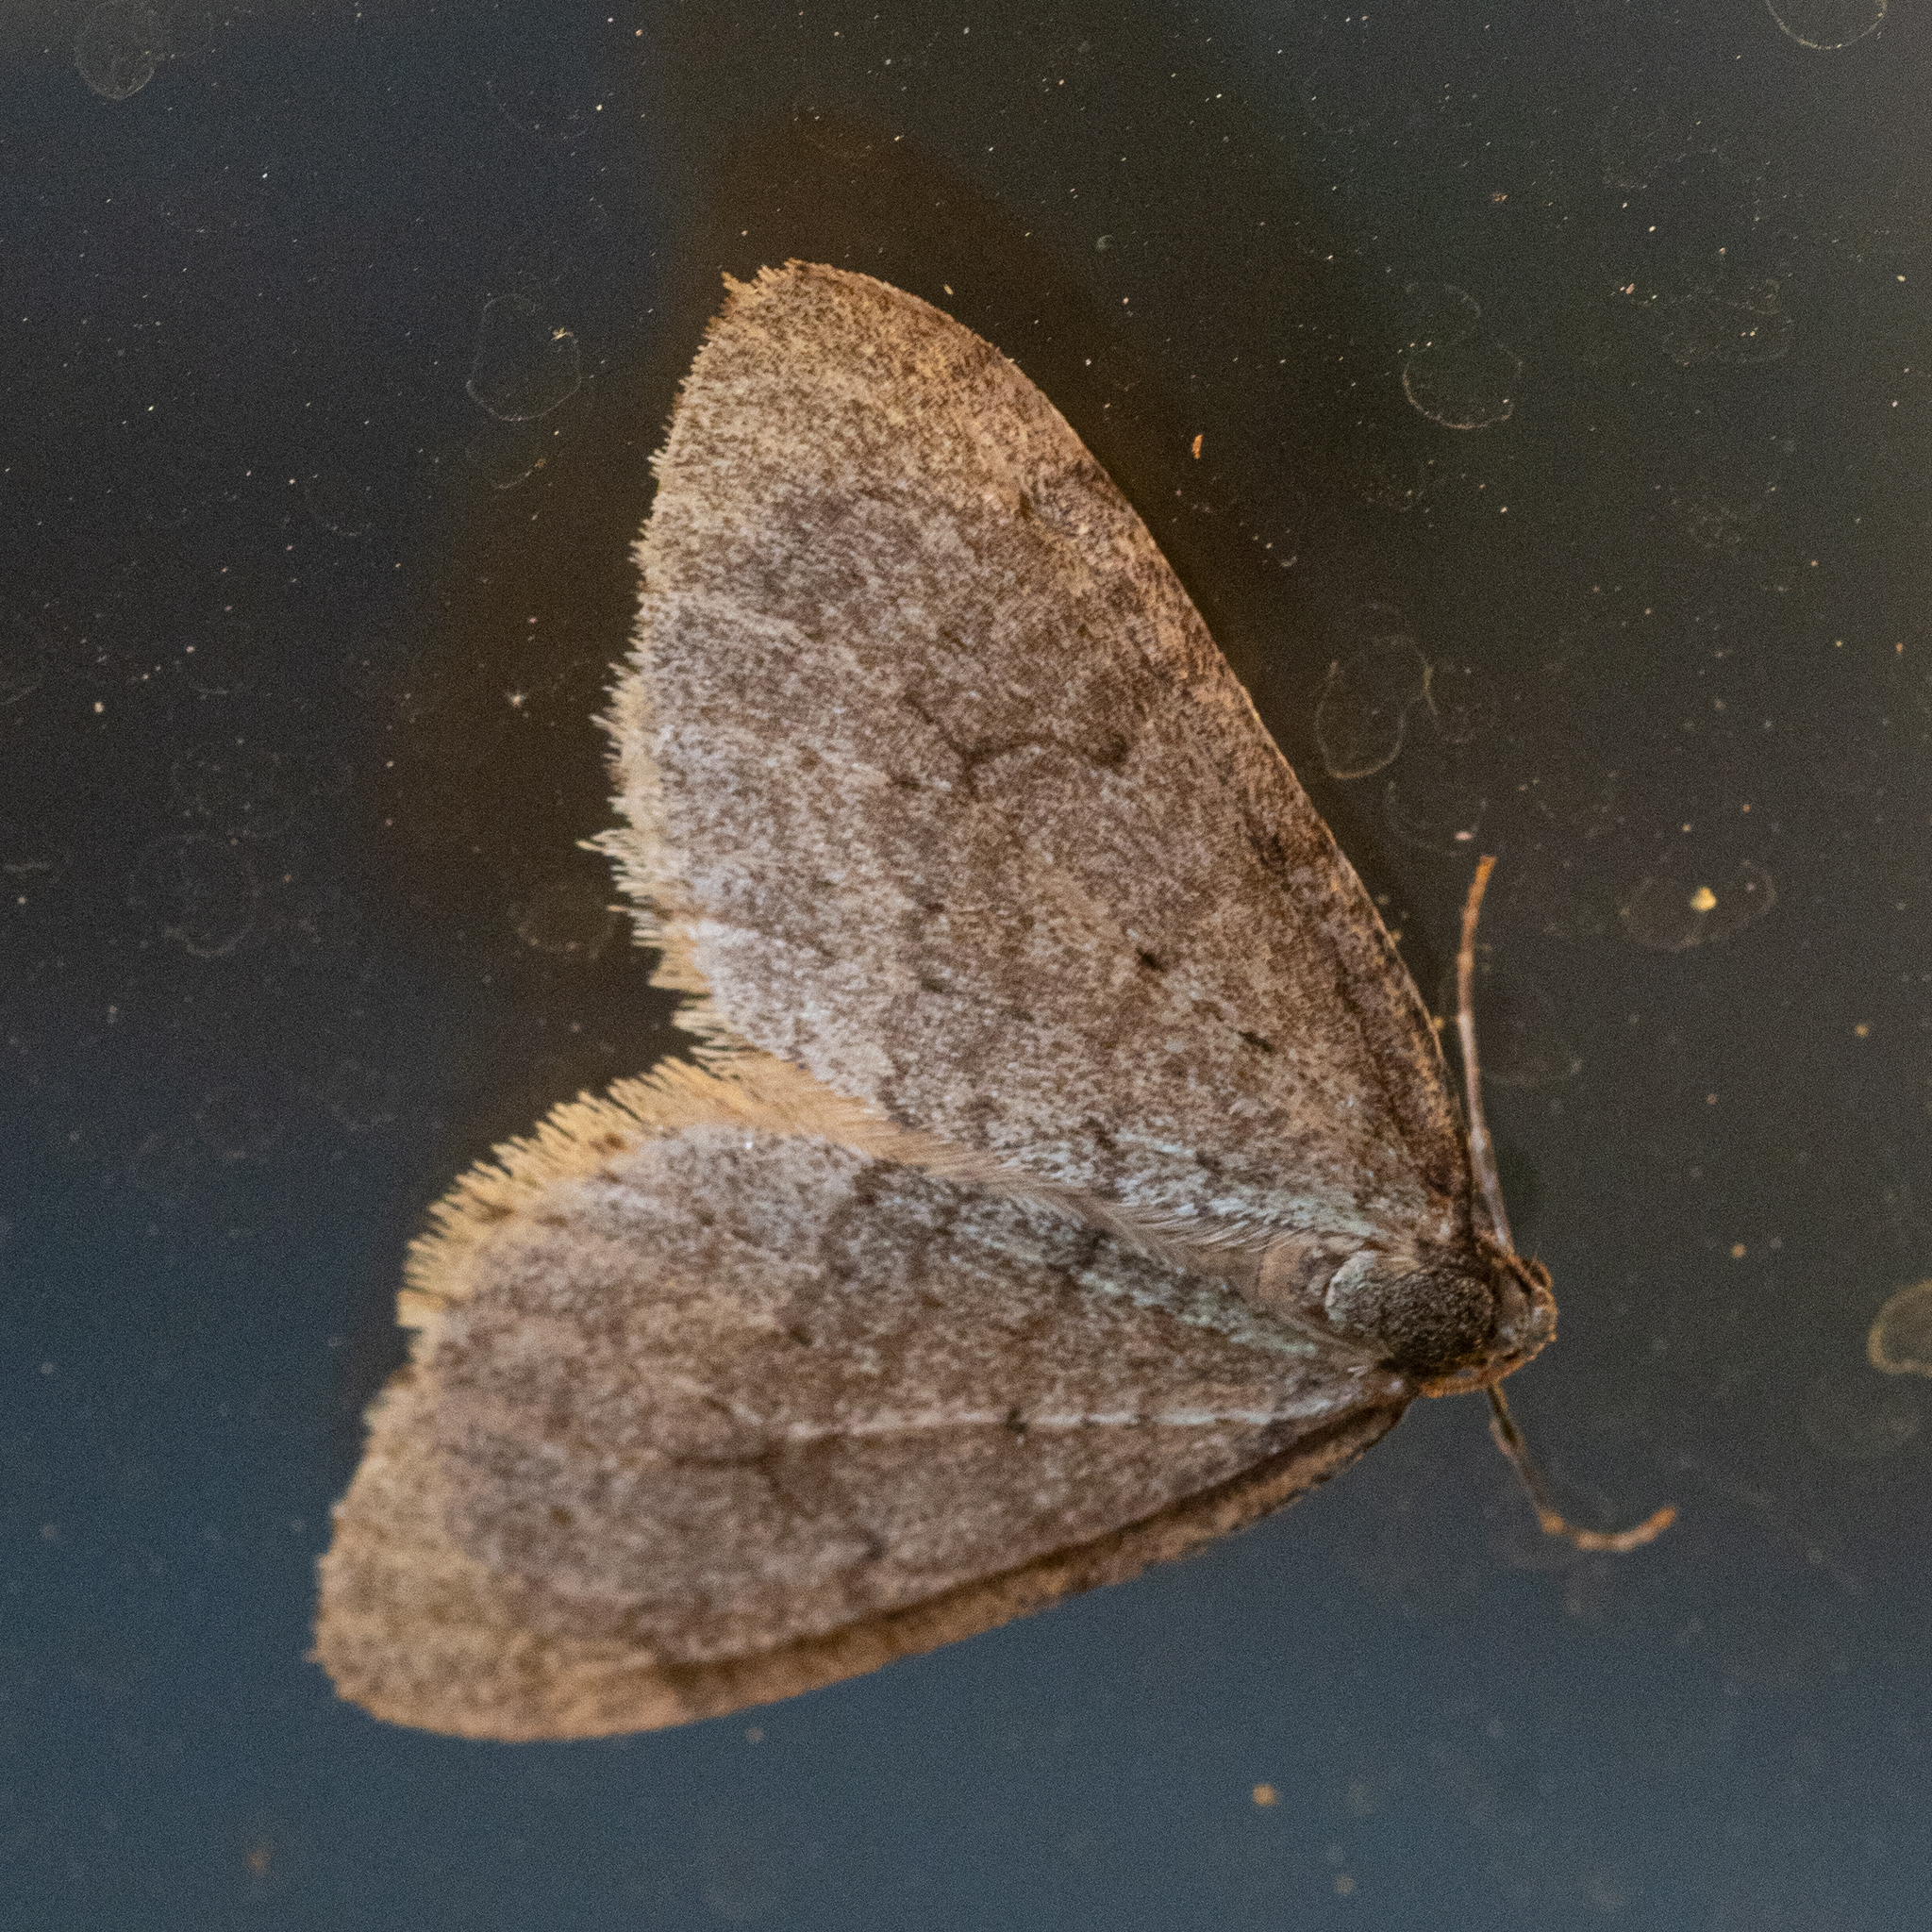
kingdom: Animalia
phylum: Arthropoda
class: Insecta
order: Lepidoptera
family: Geometridae
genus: Operophtera
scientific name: Operophtera brumata
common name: Winter moth
